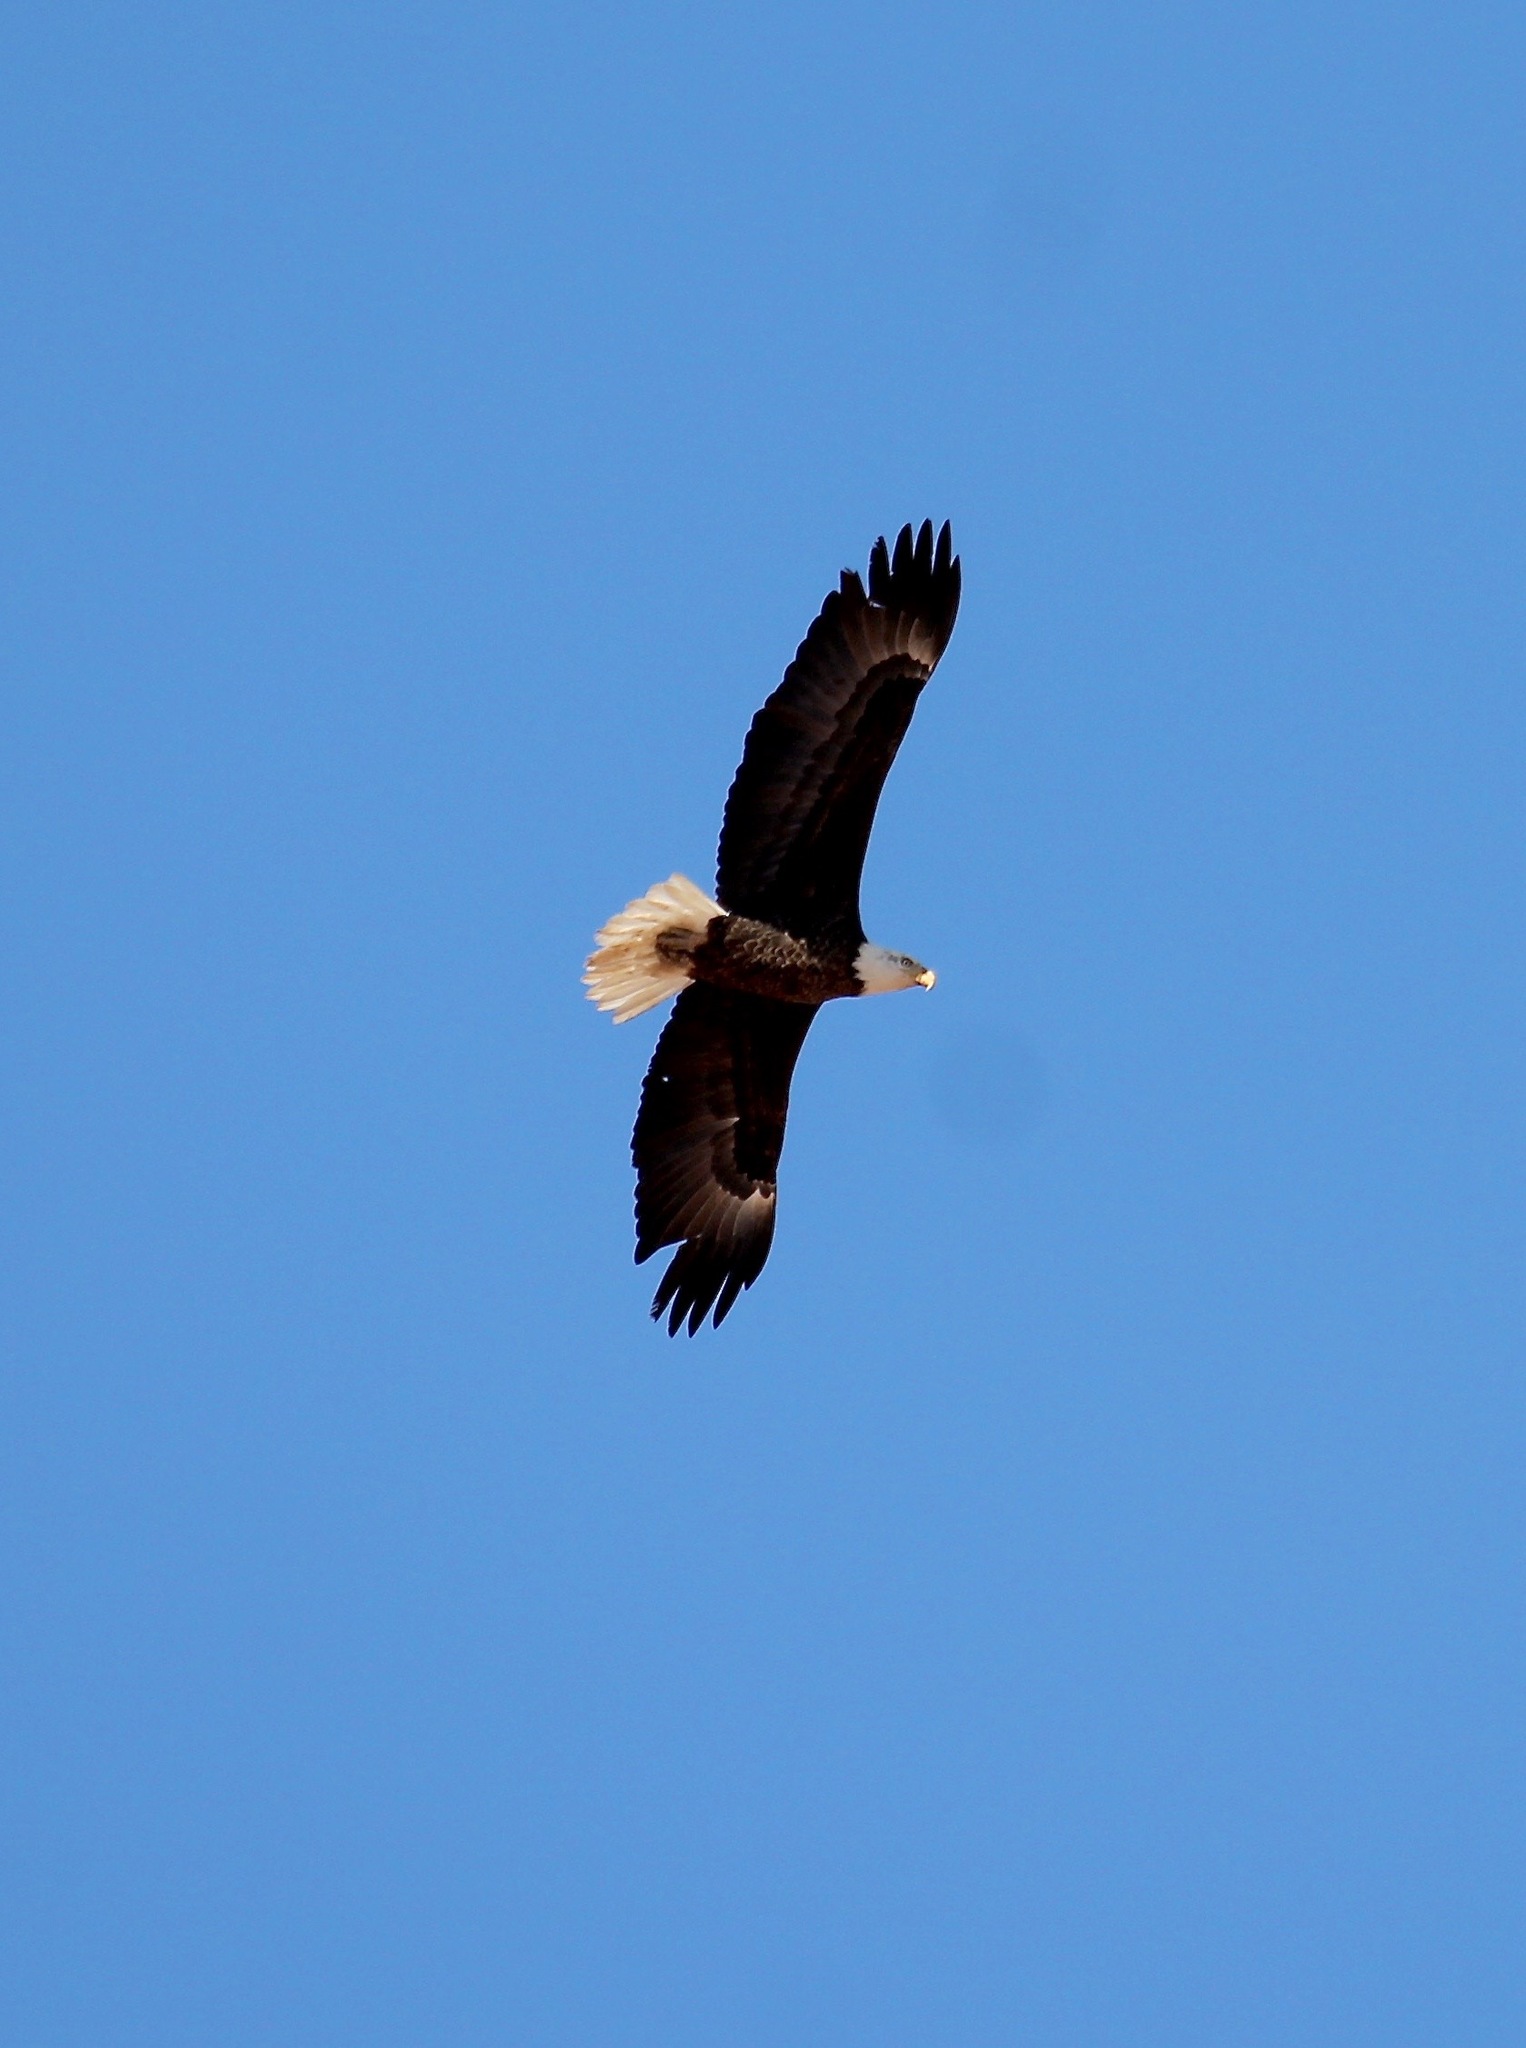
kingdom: Animalia
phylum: Chordata
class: Aves
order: Accipitriformes
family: Accipitridae
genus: Haliaeetus
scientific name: Haliaeetus leucocephalus
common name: Bald eagle
